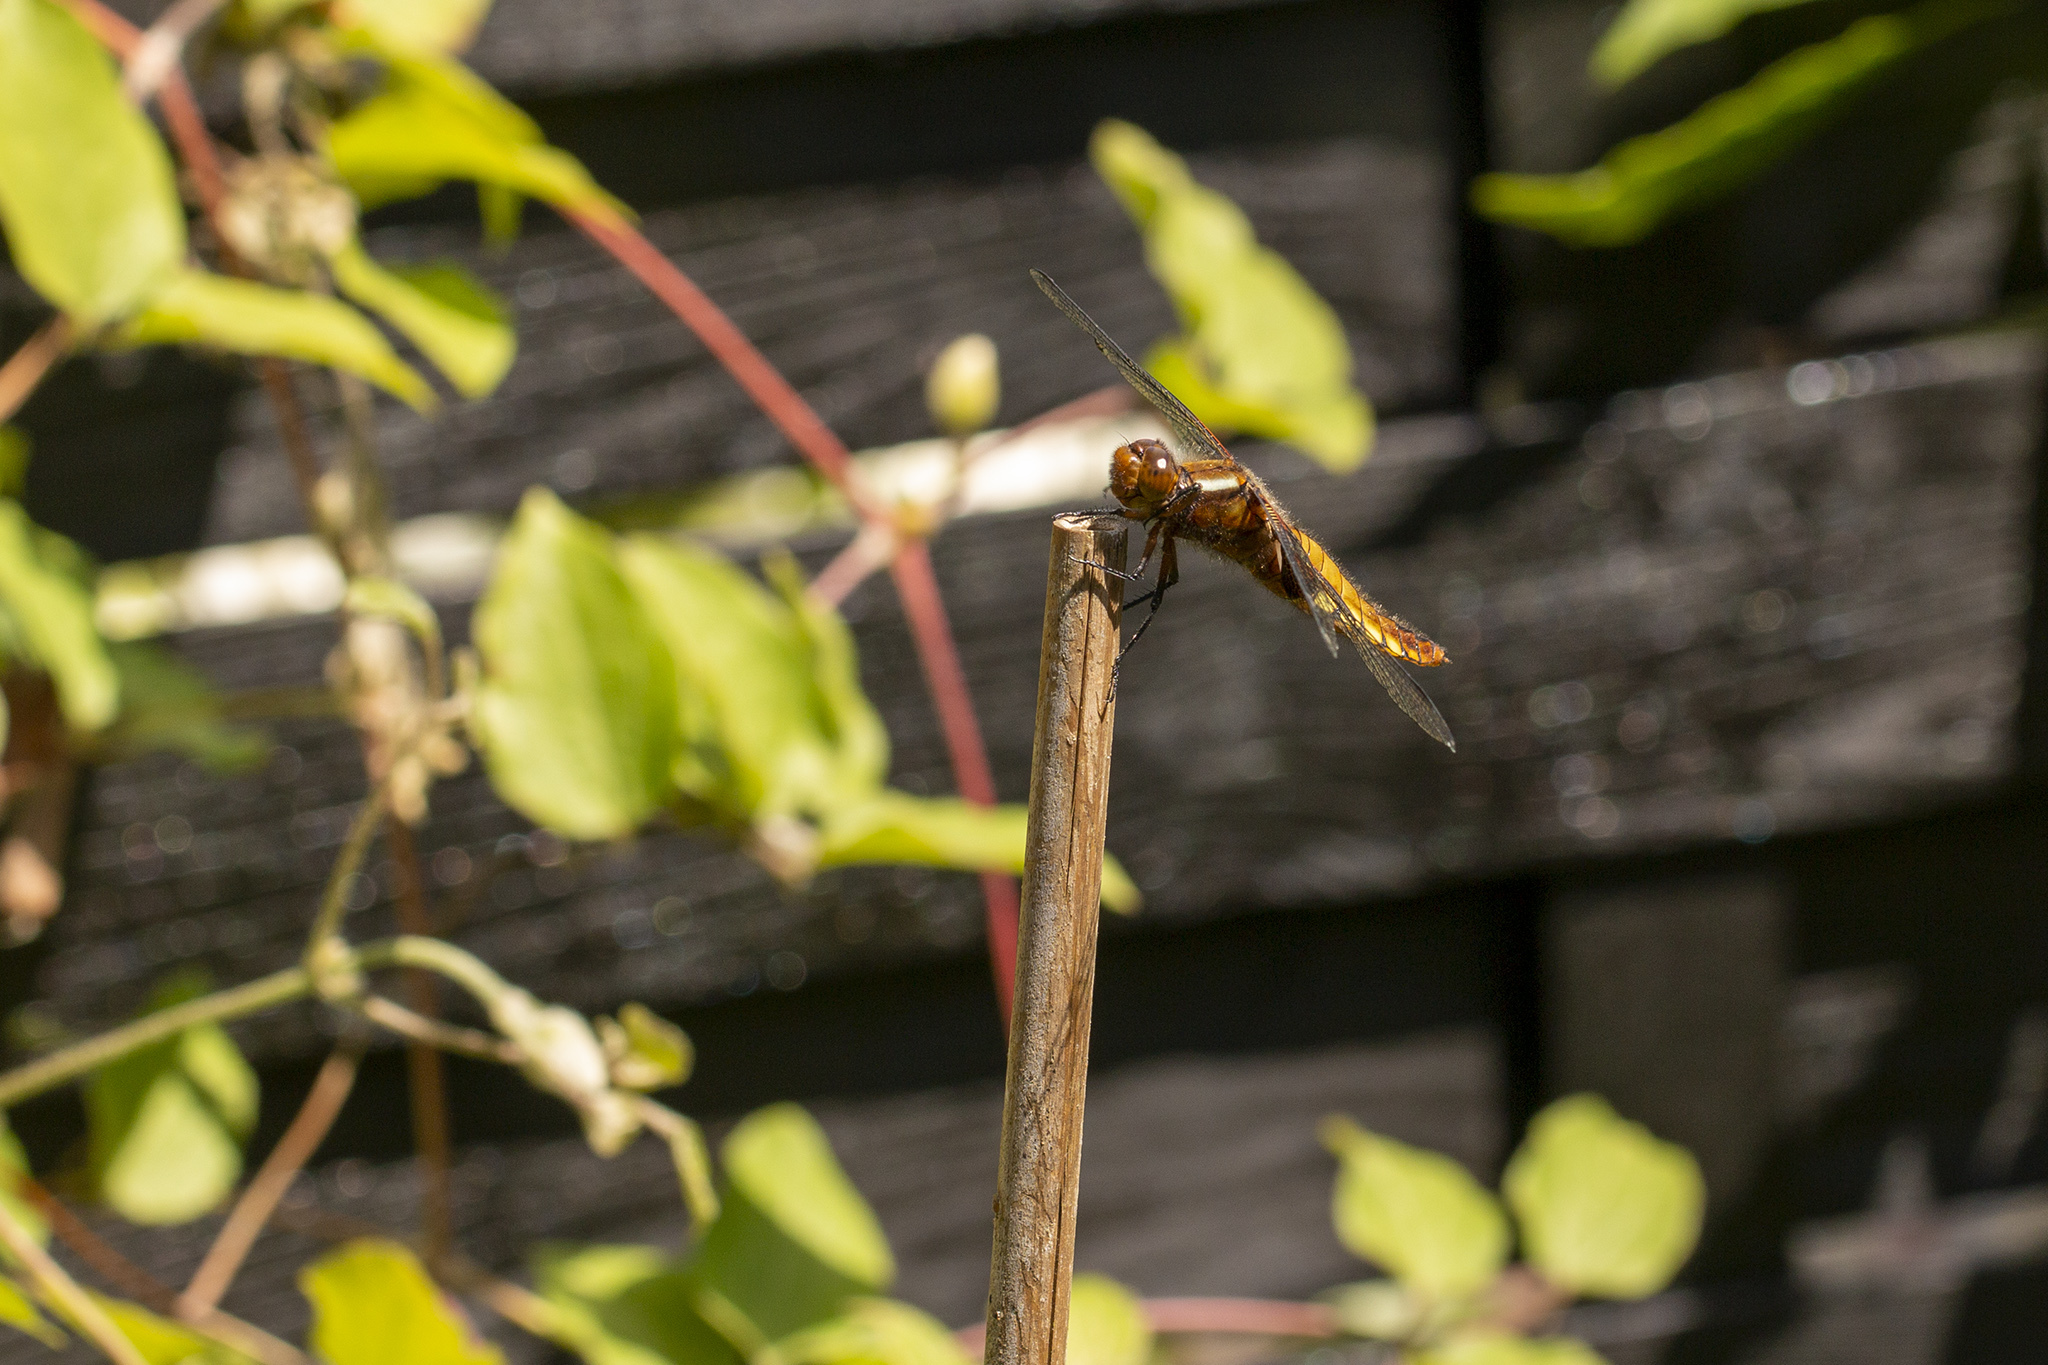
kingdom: Animalia
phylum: Arthropoda
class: Insecta
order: Odonata
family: Libellulidae
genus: Libellula
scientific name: Libellula depressa
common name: Broad-bodied chaser
